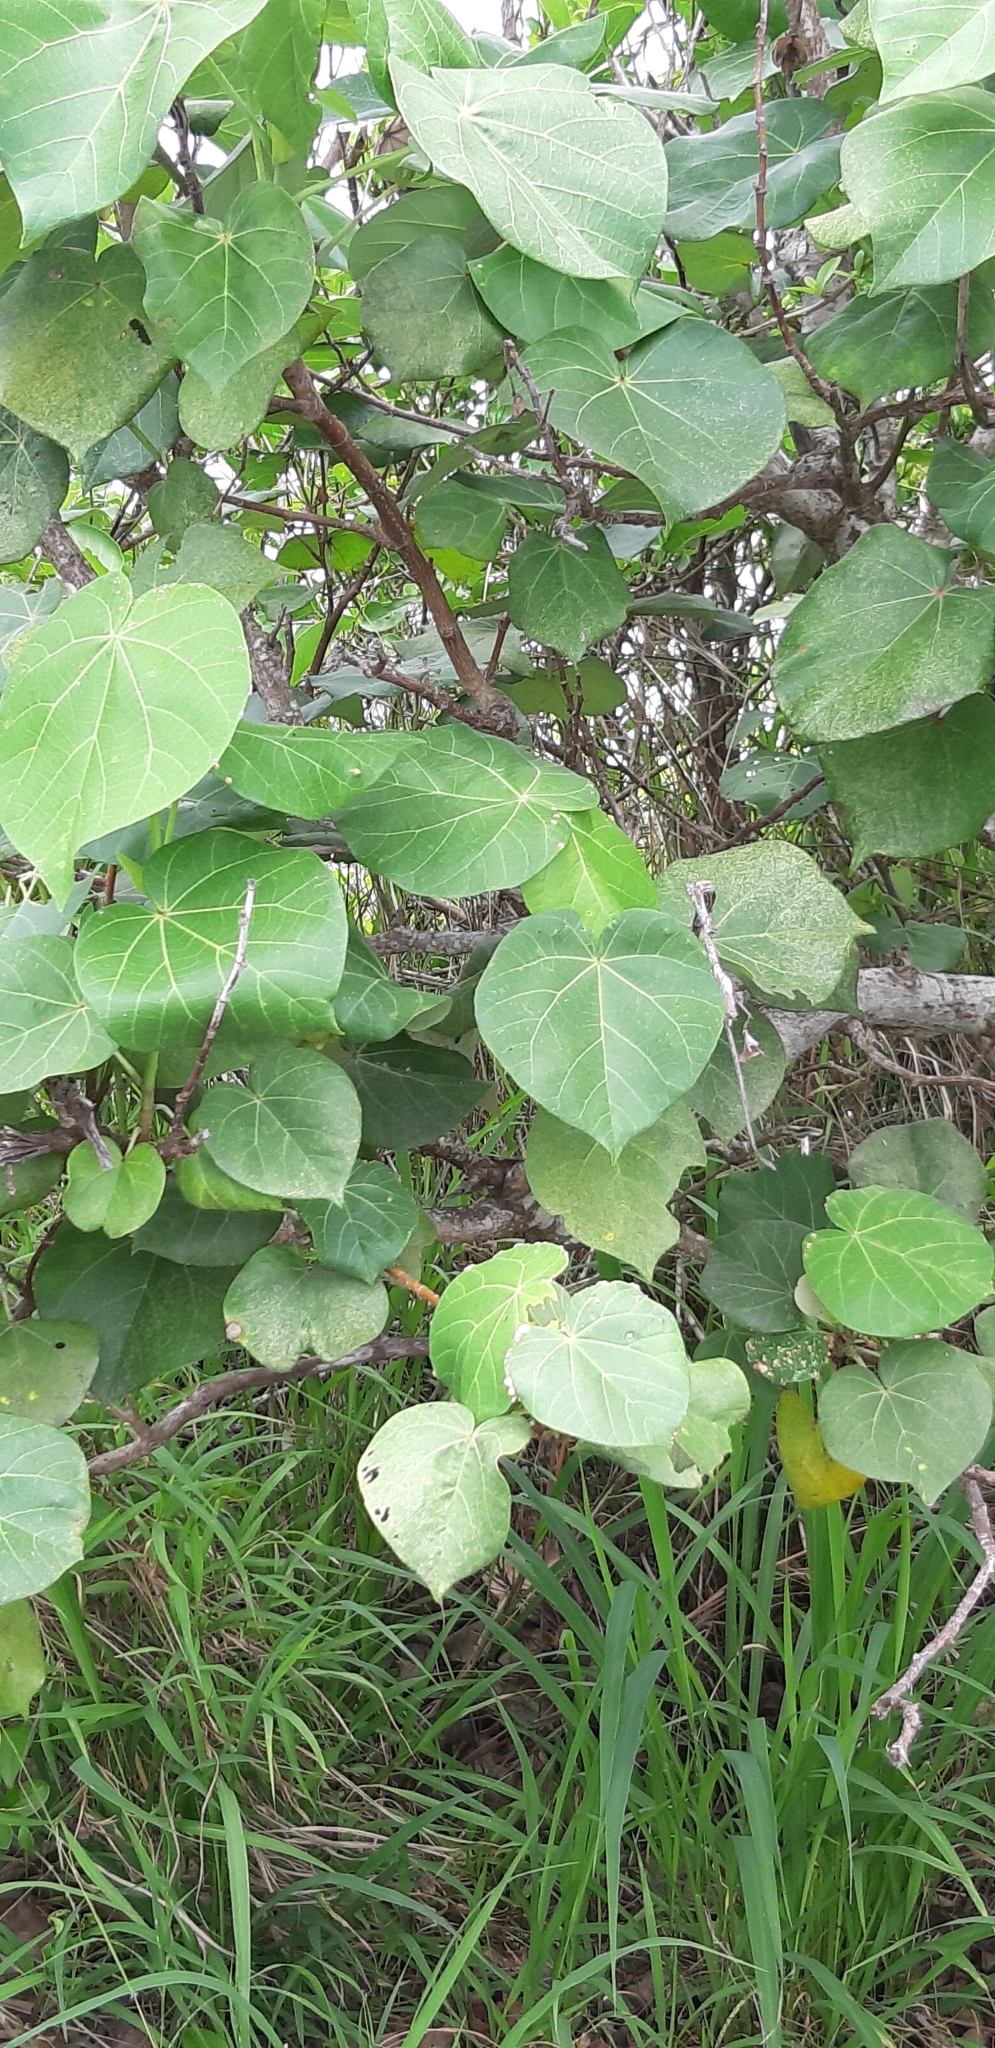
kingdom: Plantae
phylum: Tracheophyta
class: Magnoliopsida
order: Malvales
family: Malvaceae
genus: Talipariti
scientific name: Talipariti tiliaceum
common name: Sea hibiscus
